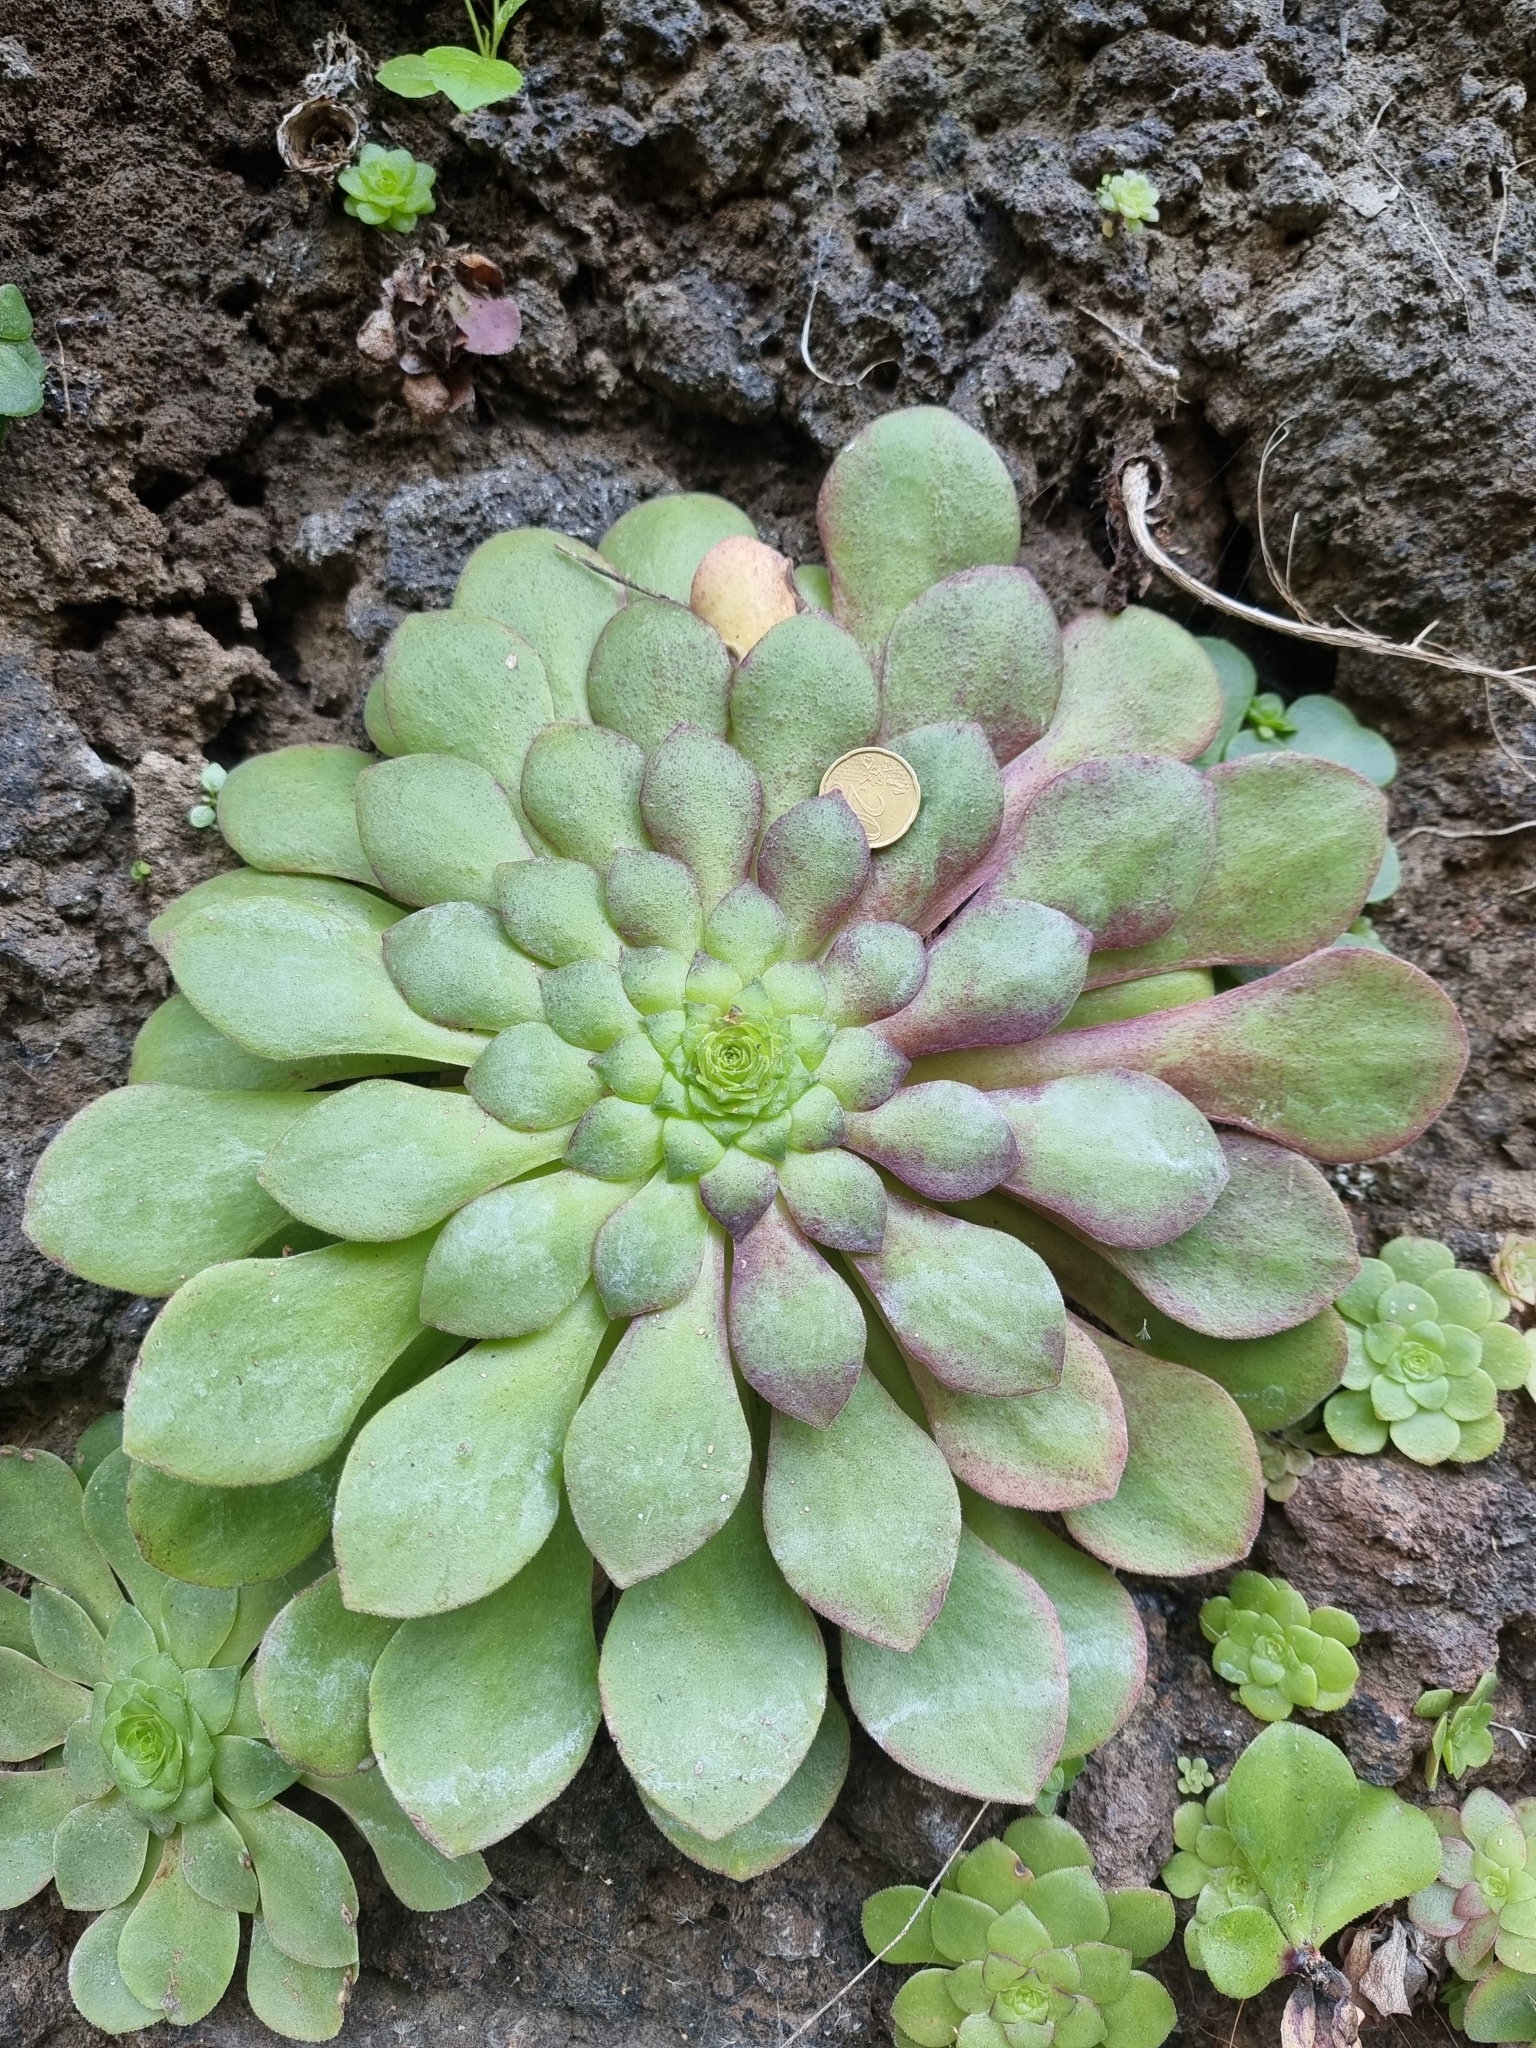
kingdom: Plantae
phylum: Tracheophyta
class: Magnoliopsida
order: Saxifragales
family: Crassulaceae
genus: Aeonium
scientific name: Aeonium glandulosum
